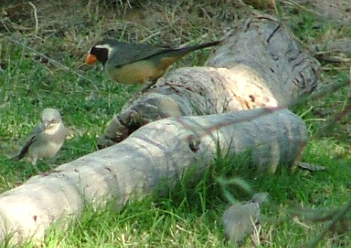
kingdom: Animalia
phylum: Chordata
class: Aves
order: Passeriformes
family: Thraupidae
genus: Saltator
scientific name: Saltator aurantiirostris
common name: Golden-billed saltator
